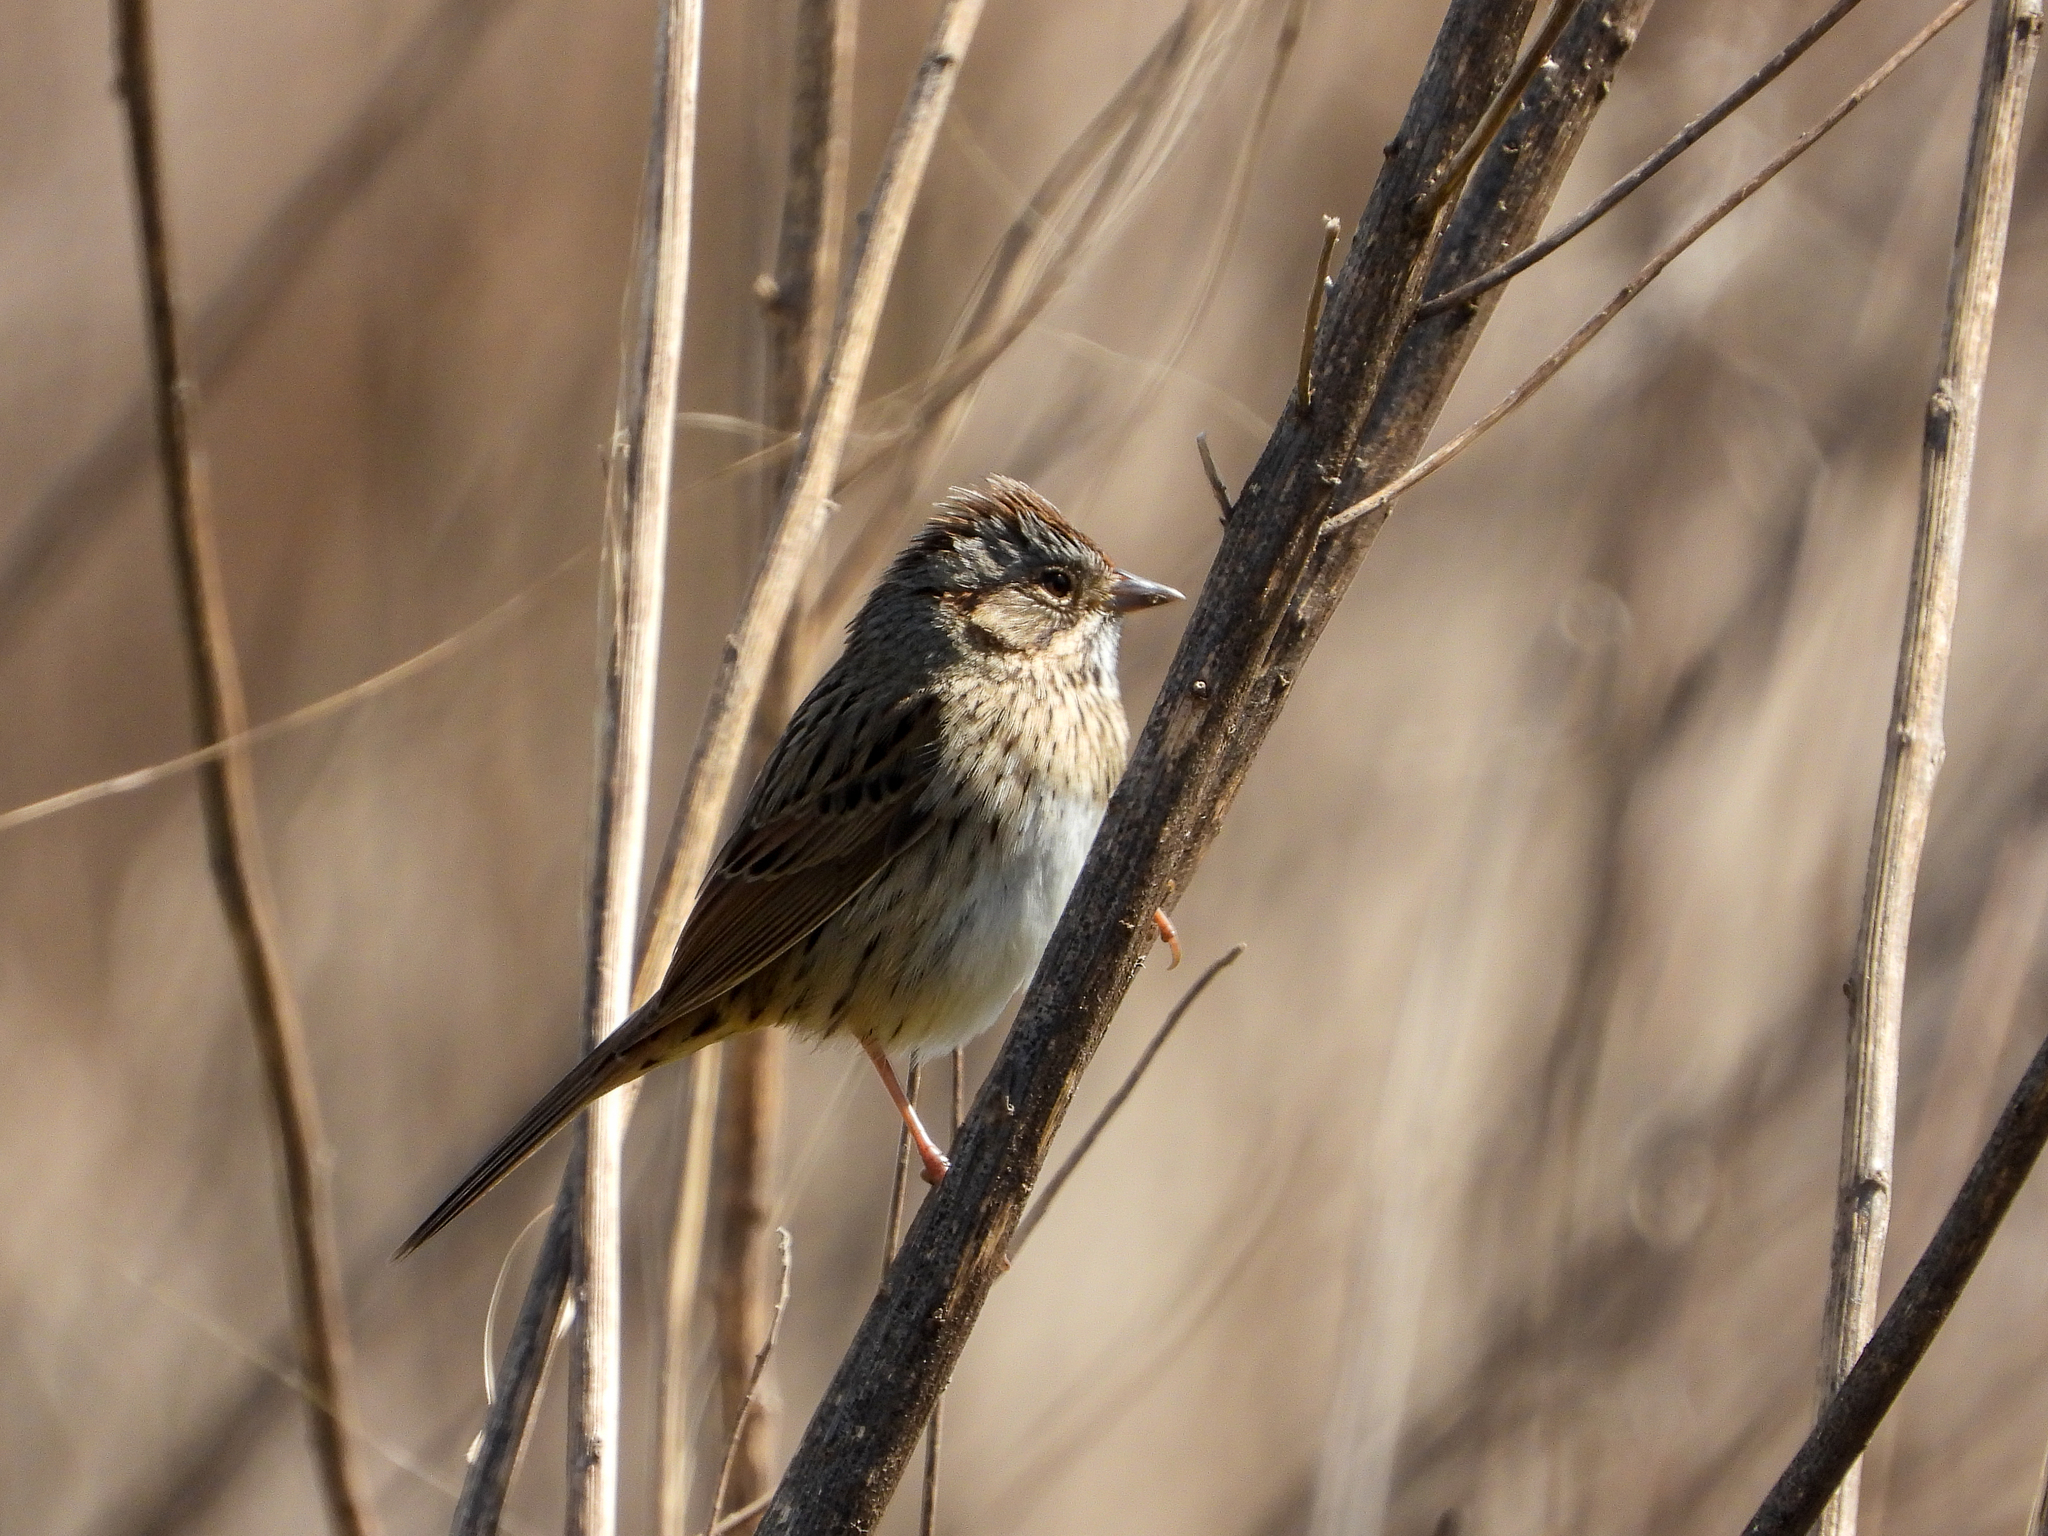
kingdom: Animalia
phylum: Chordata
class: Aves
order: Passeriformes
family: Passerellidae
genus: Melospiza
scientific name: Melospiza lincolnii
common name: Lincoln's sparrow
